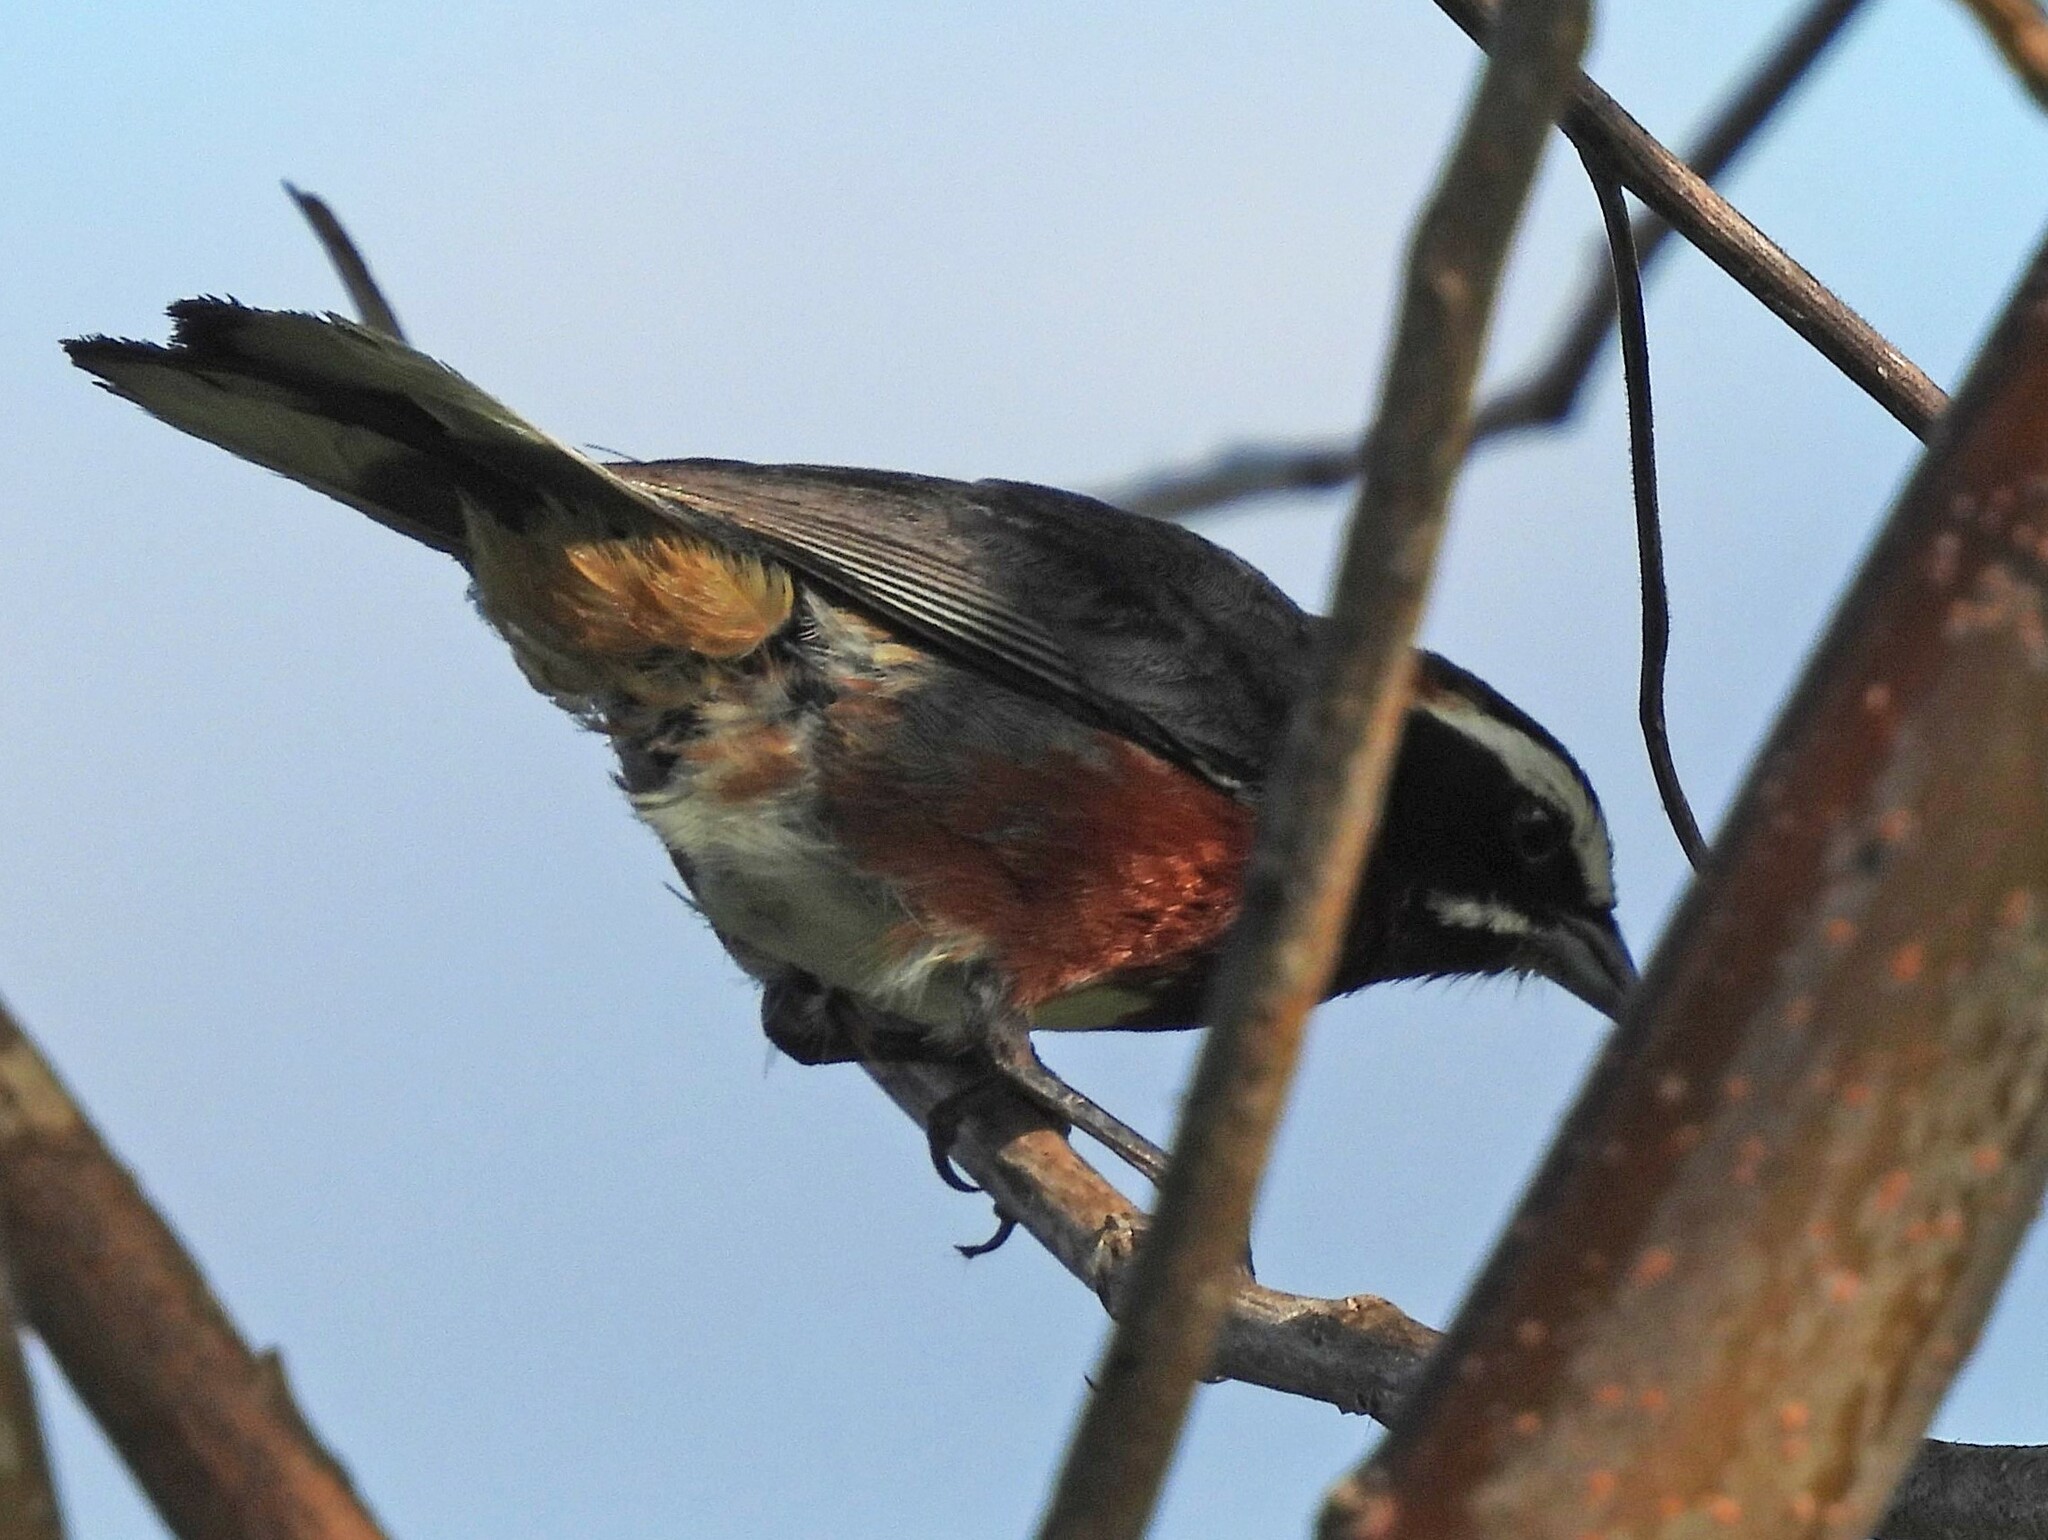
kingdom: Animalia
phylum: Chordata
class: Aves
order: Passeriformes
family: Thraupidae
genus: Poospiza
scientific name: Poospiza whitii
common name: Black-and-chestnut warbling finch
